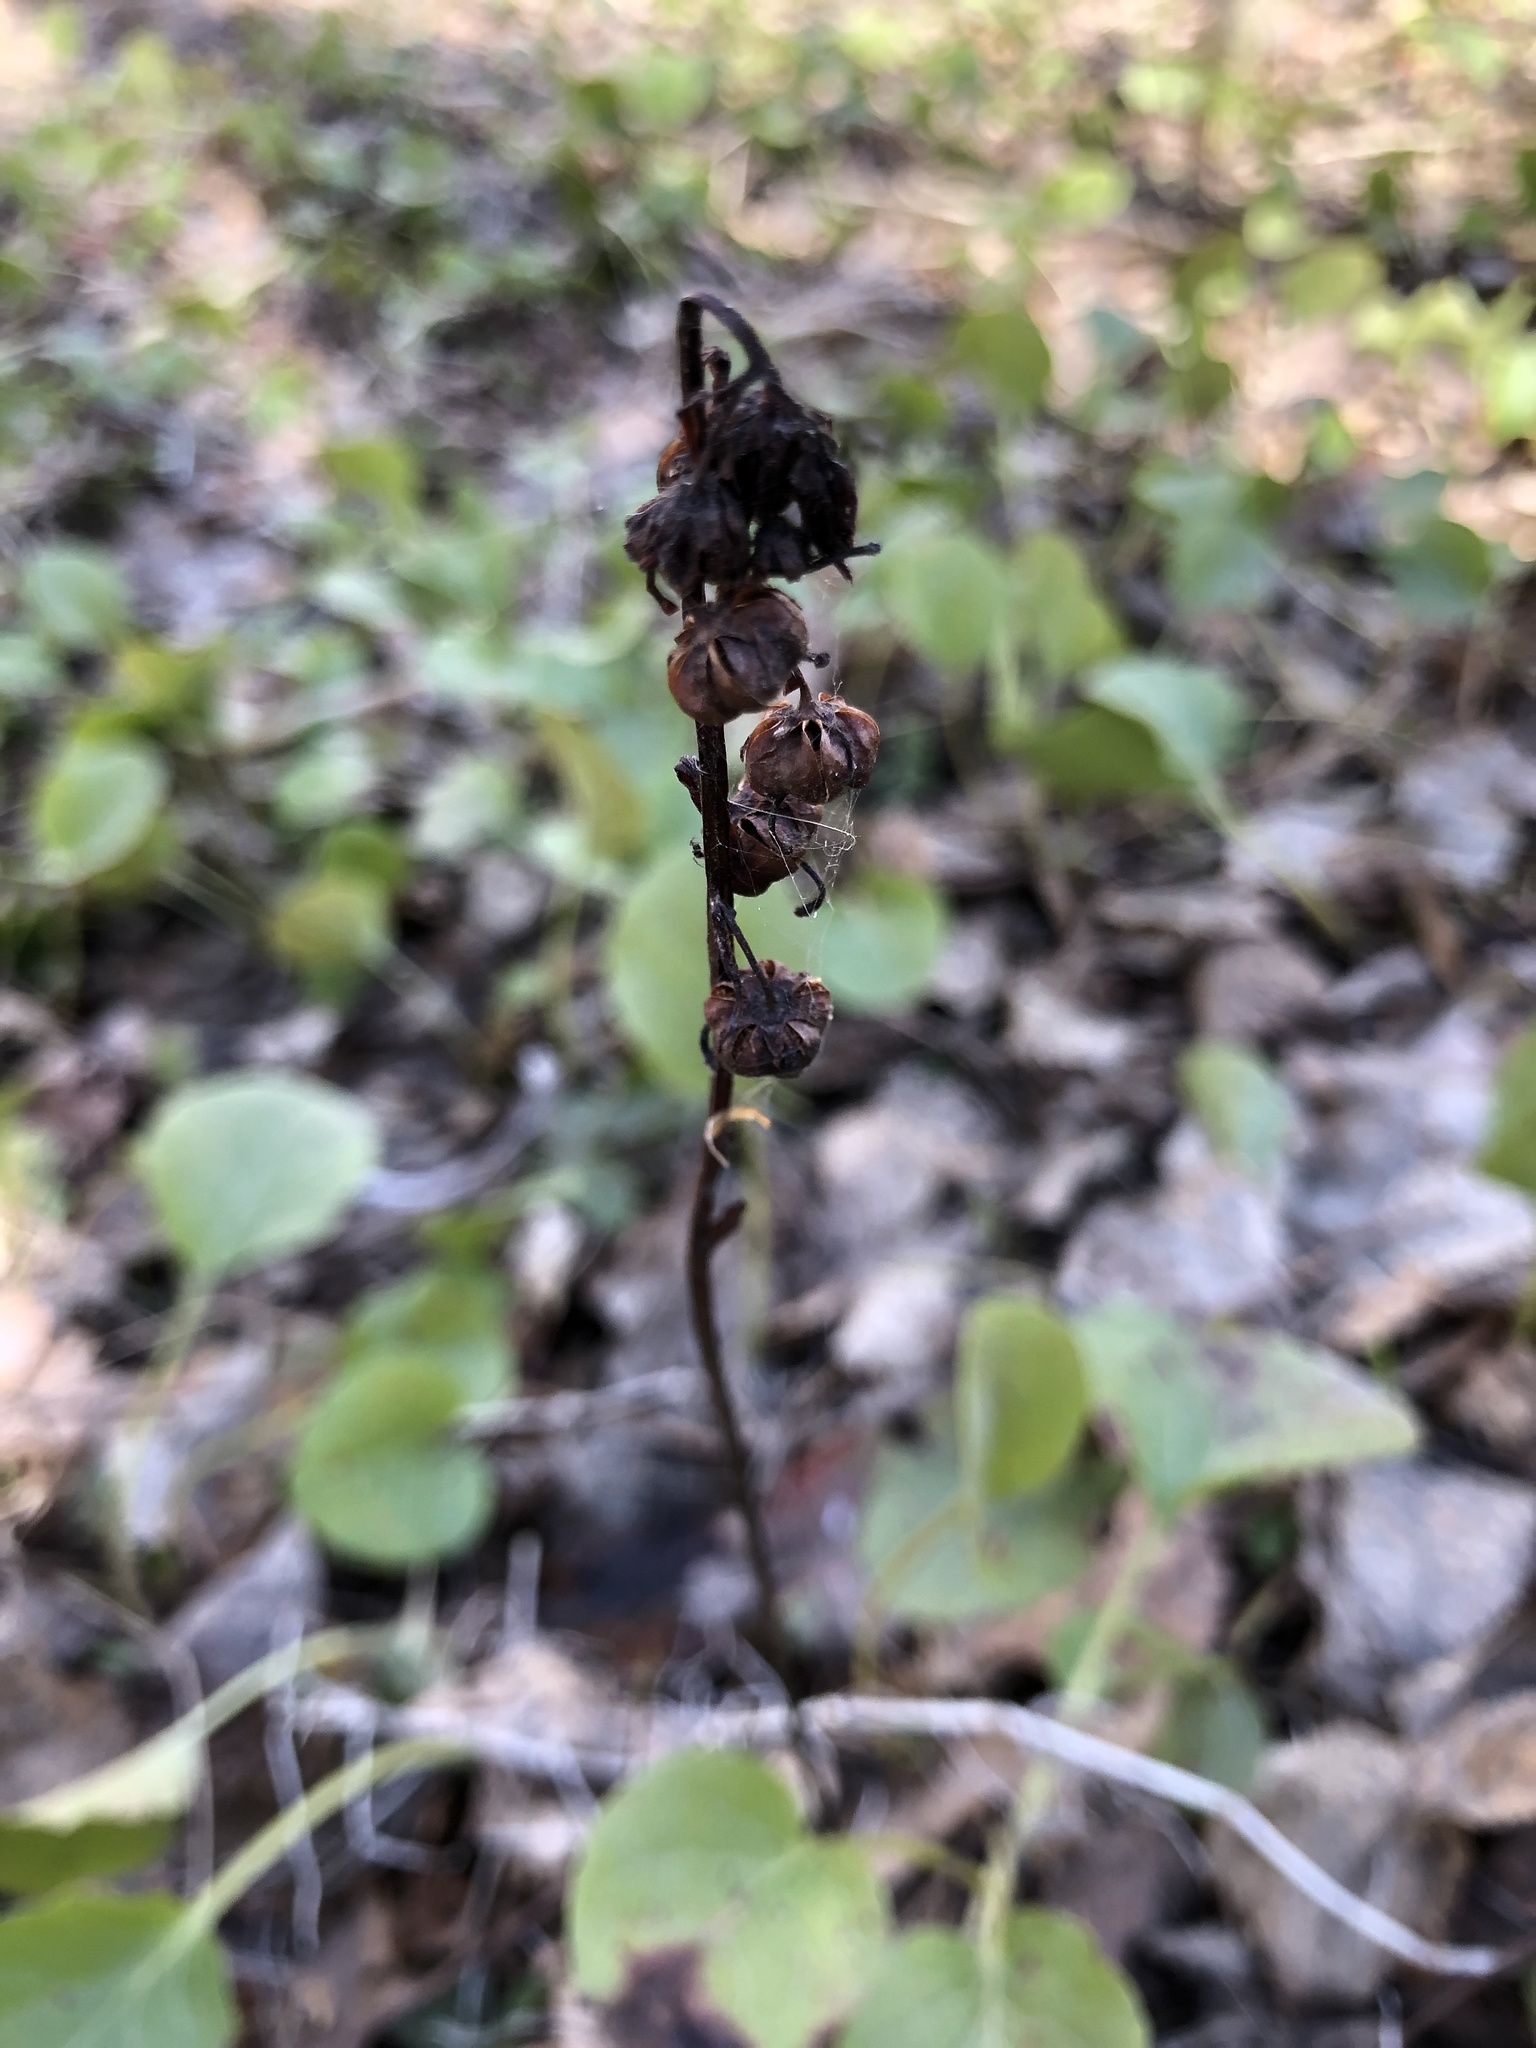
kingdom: Plantae
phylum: Tracheophyta
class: Magnoliopsida
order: Ericales
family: Ericaceae
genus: Pyrola
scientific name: Pyrola rotundifolia
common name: Round-leaved wintergreen
